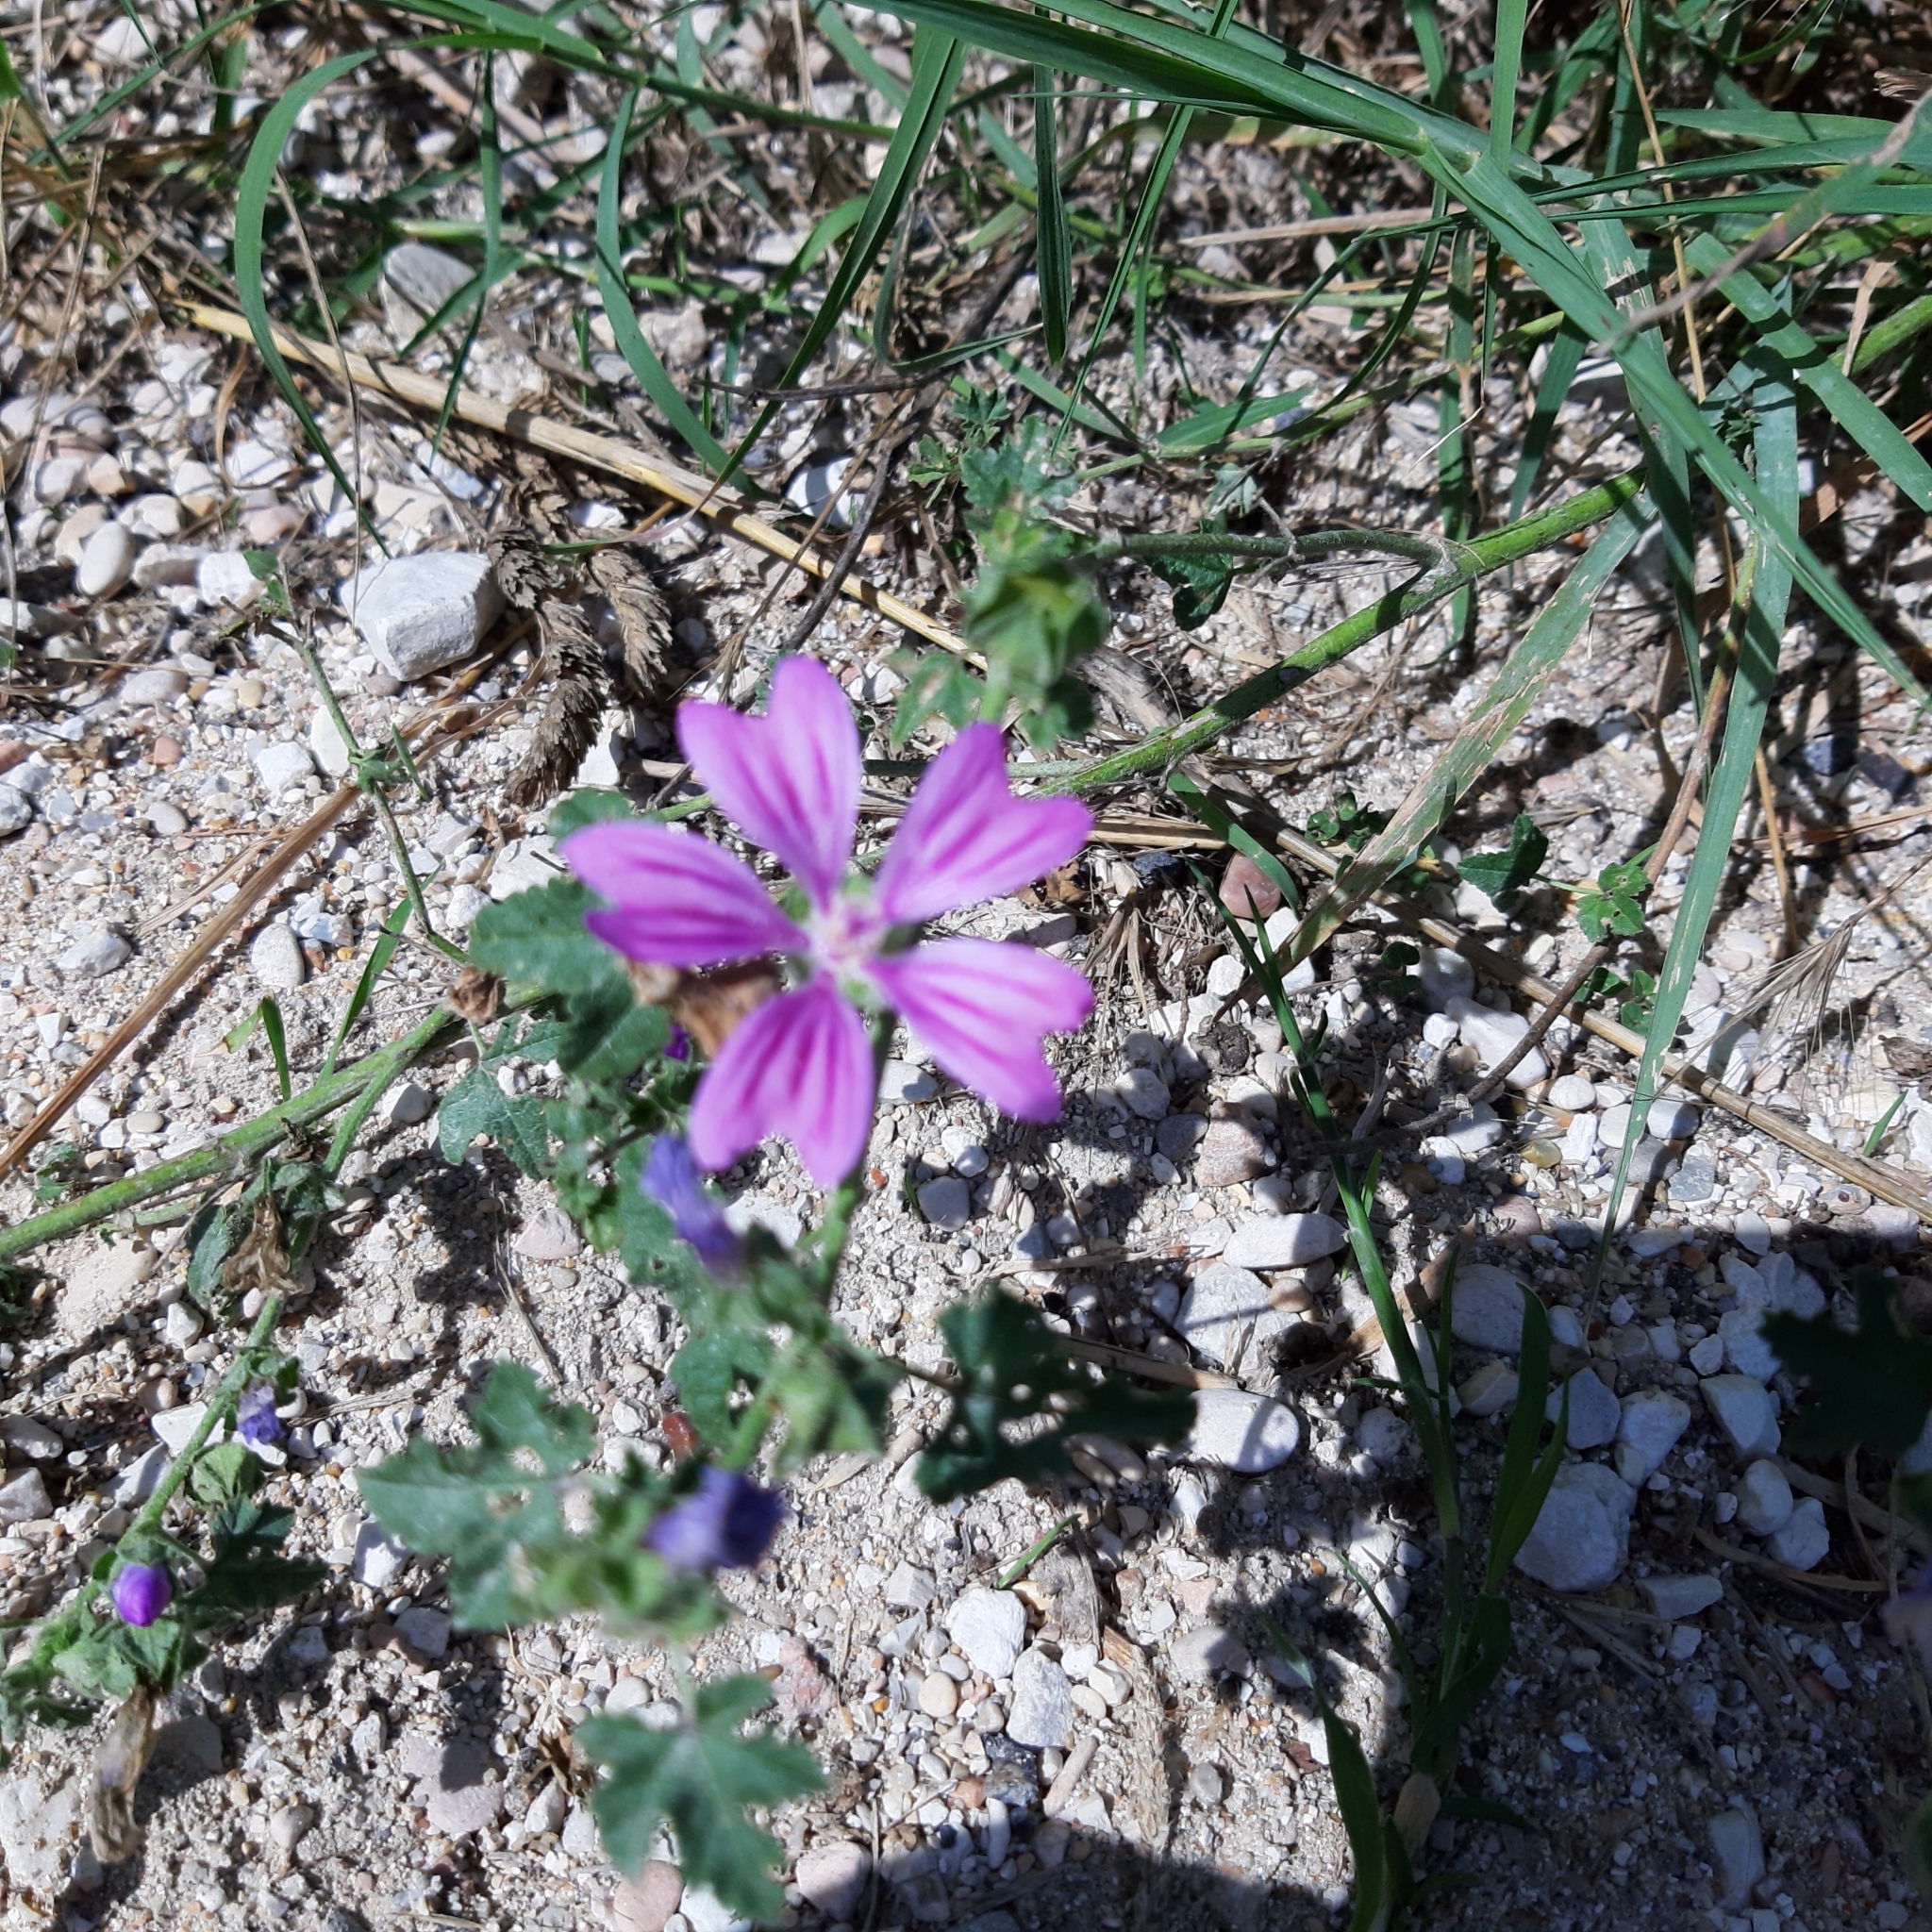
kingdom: Plantae
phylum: Tracheophyta
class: Magnoliopsida
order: Malvales
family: Malvaceae
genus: Malva
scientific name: Malva sylvestris
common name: Common mallow
